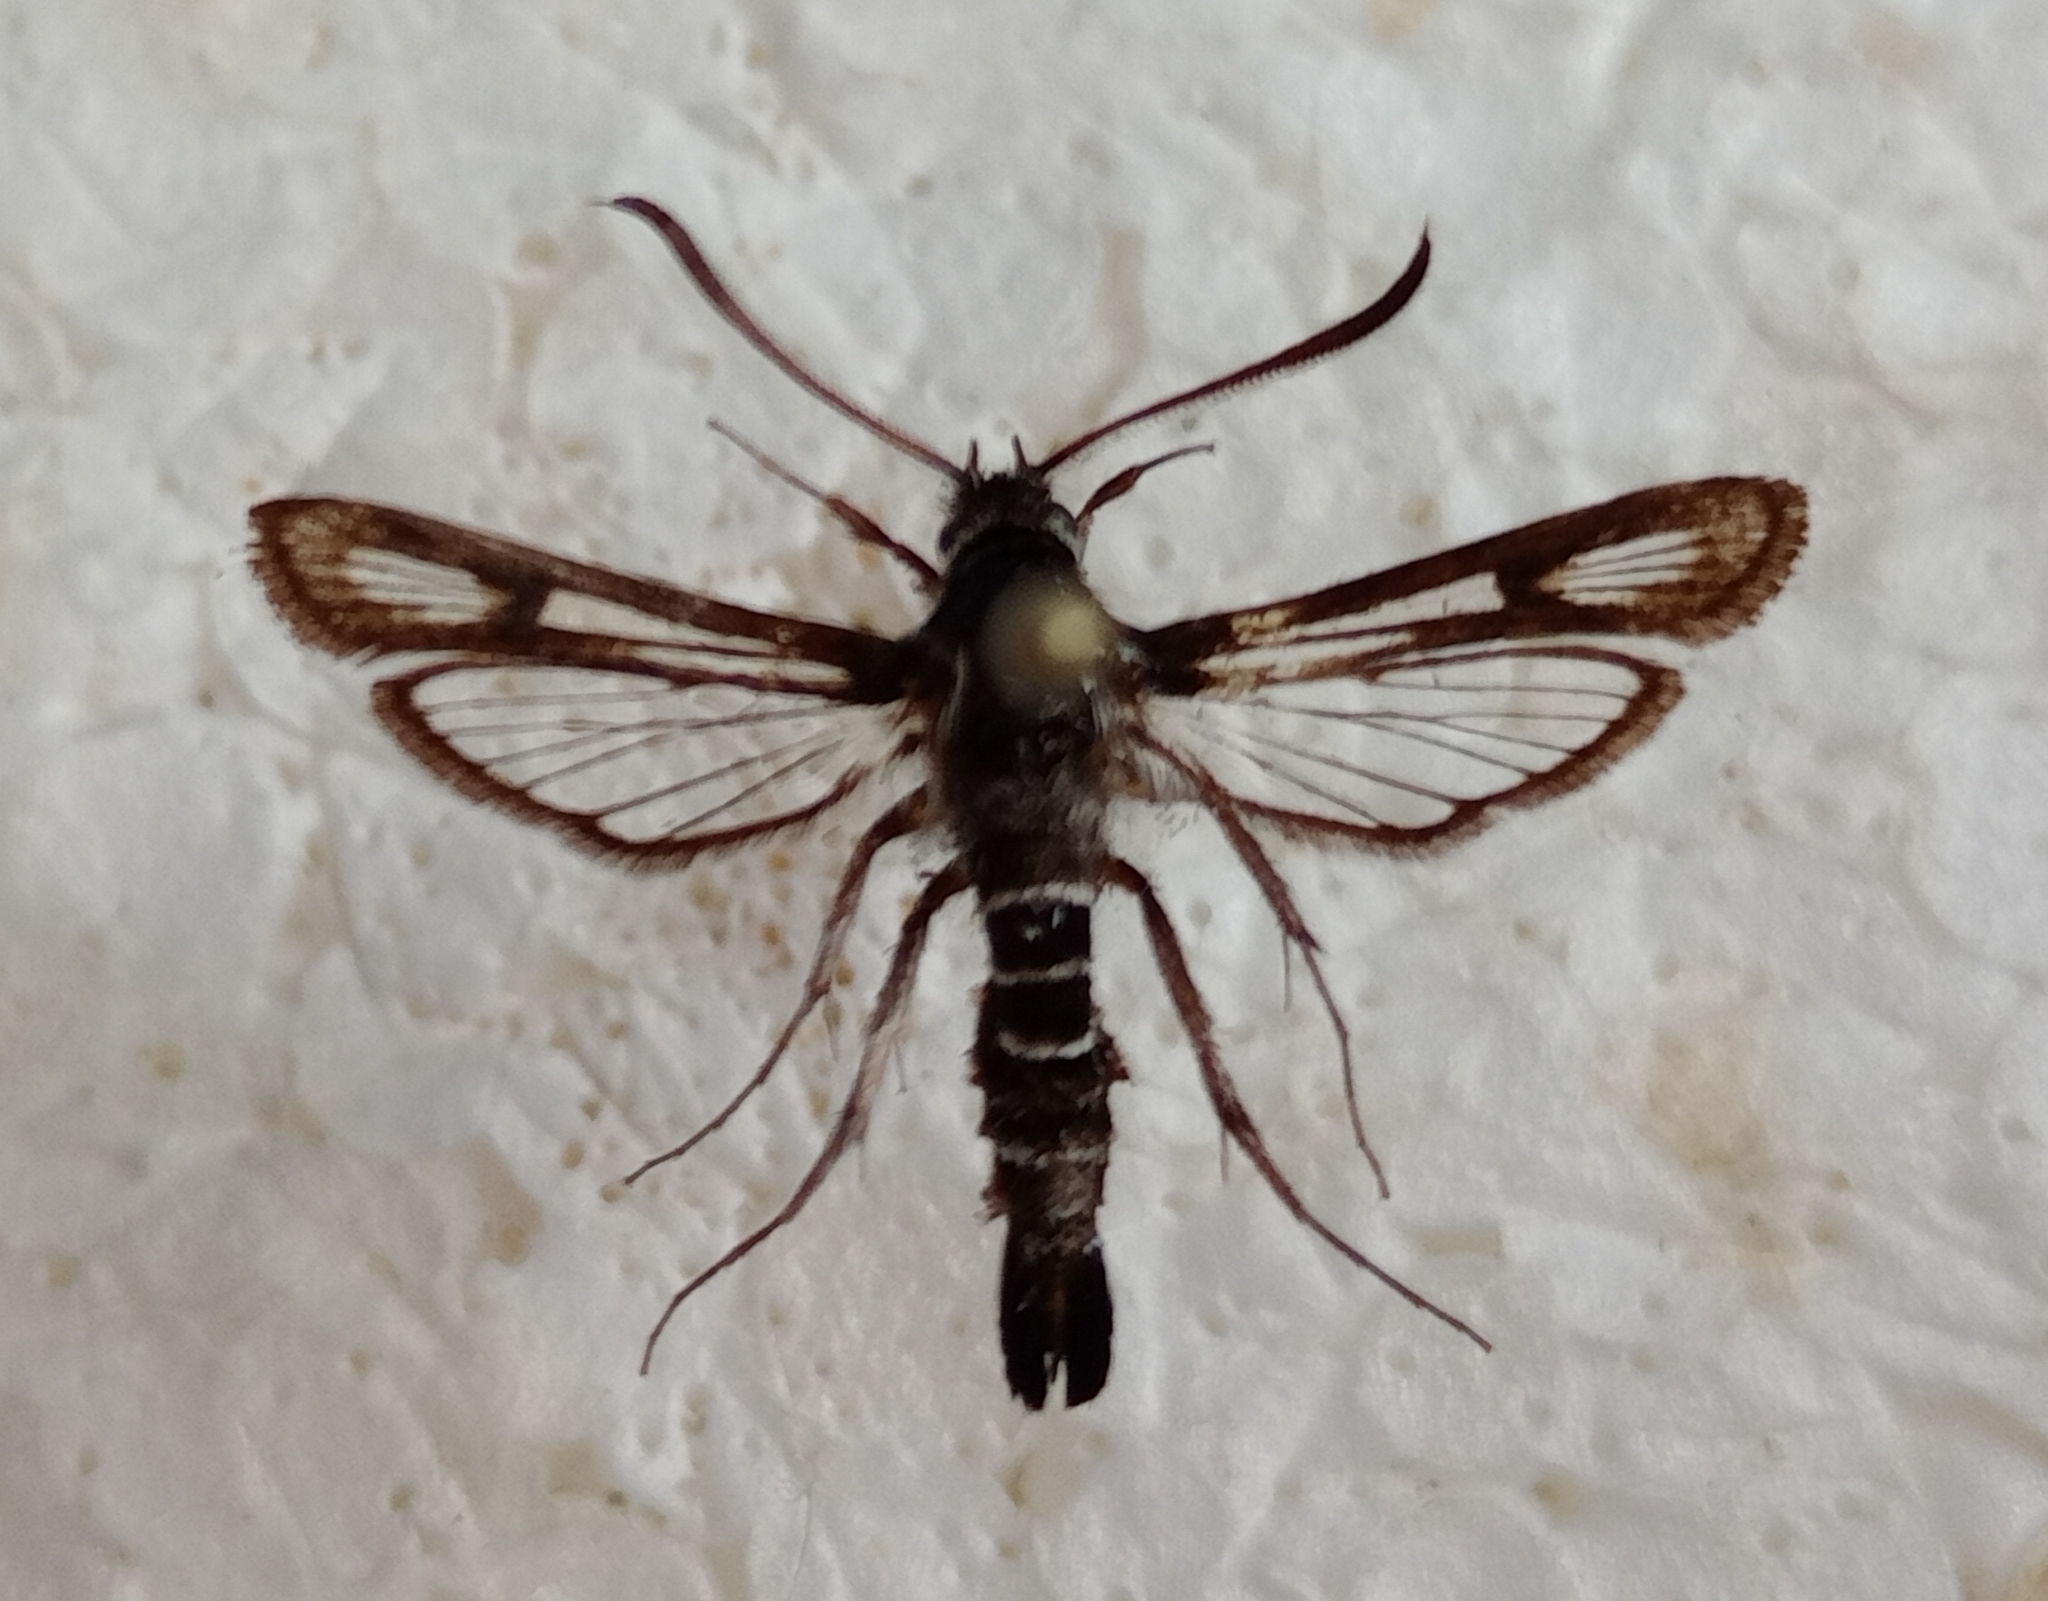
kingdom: Animalia
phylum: Arthropoda
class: Insecta
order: Lepidoptera
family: Sesiidae
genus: Bembecia
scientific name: Bembecia vulcanica
